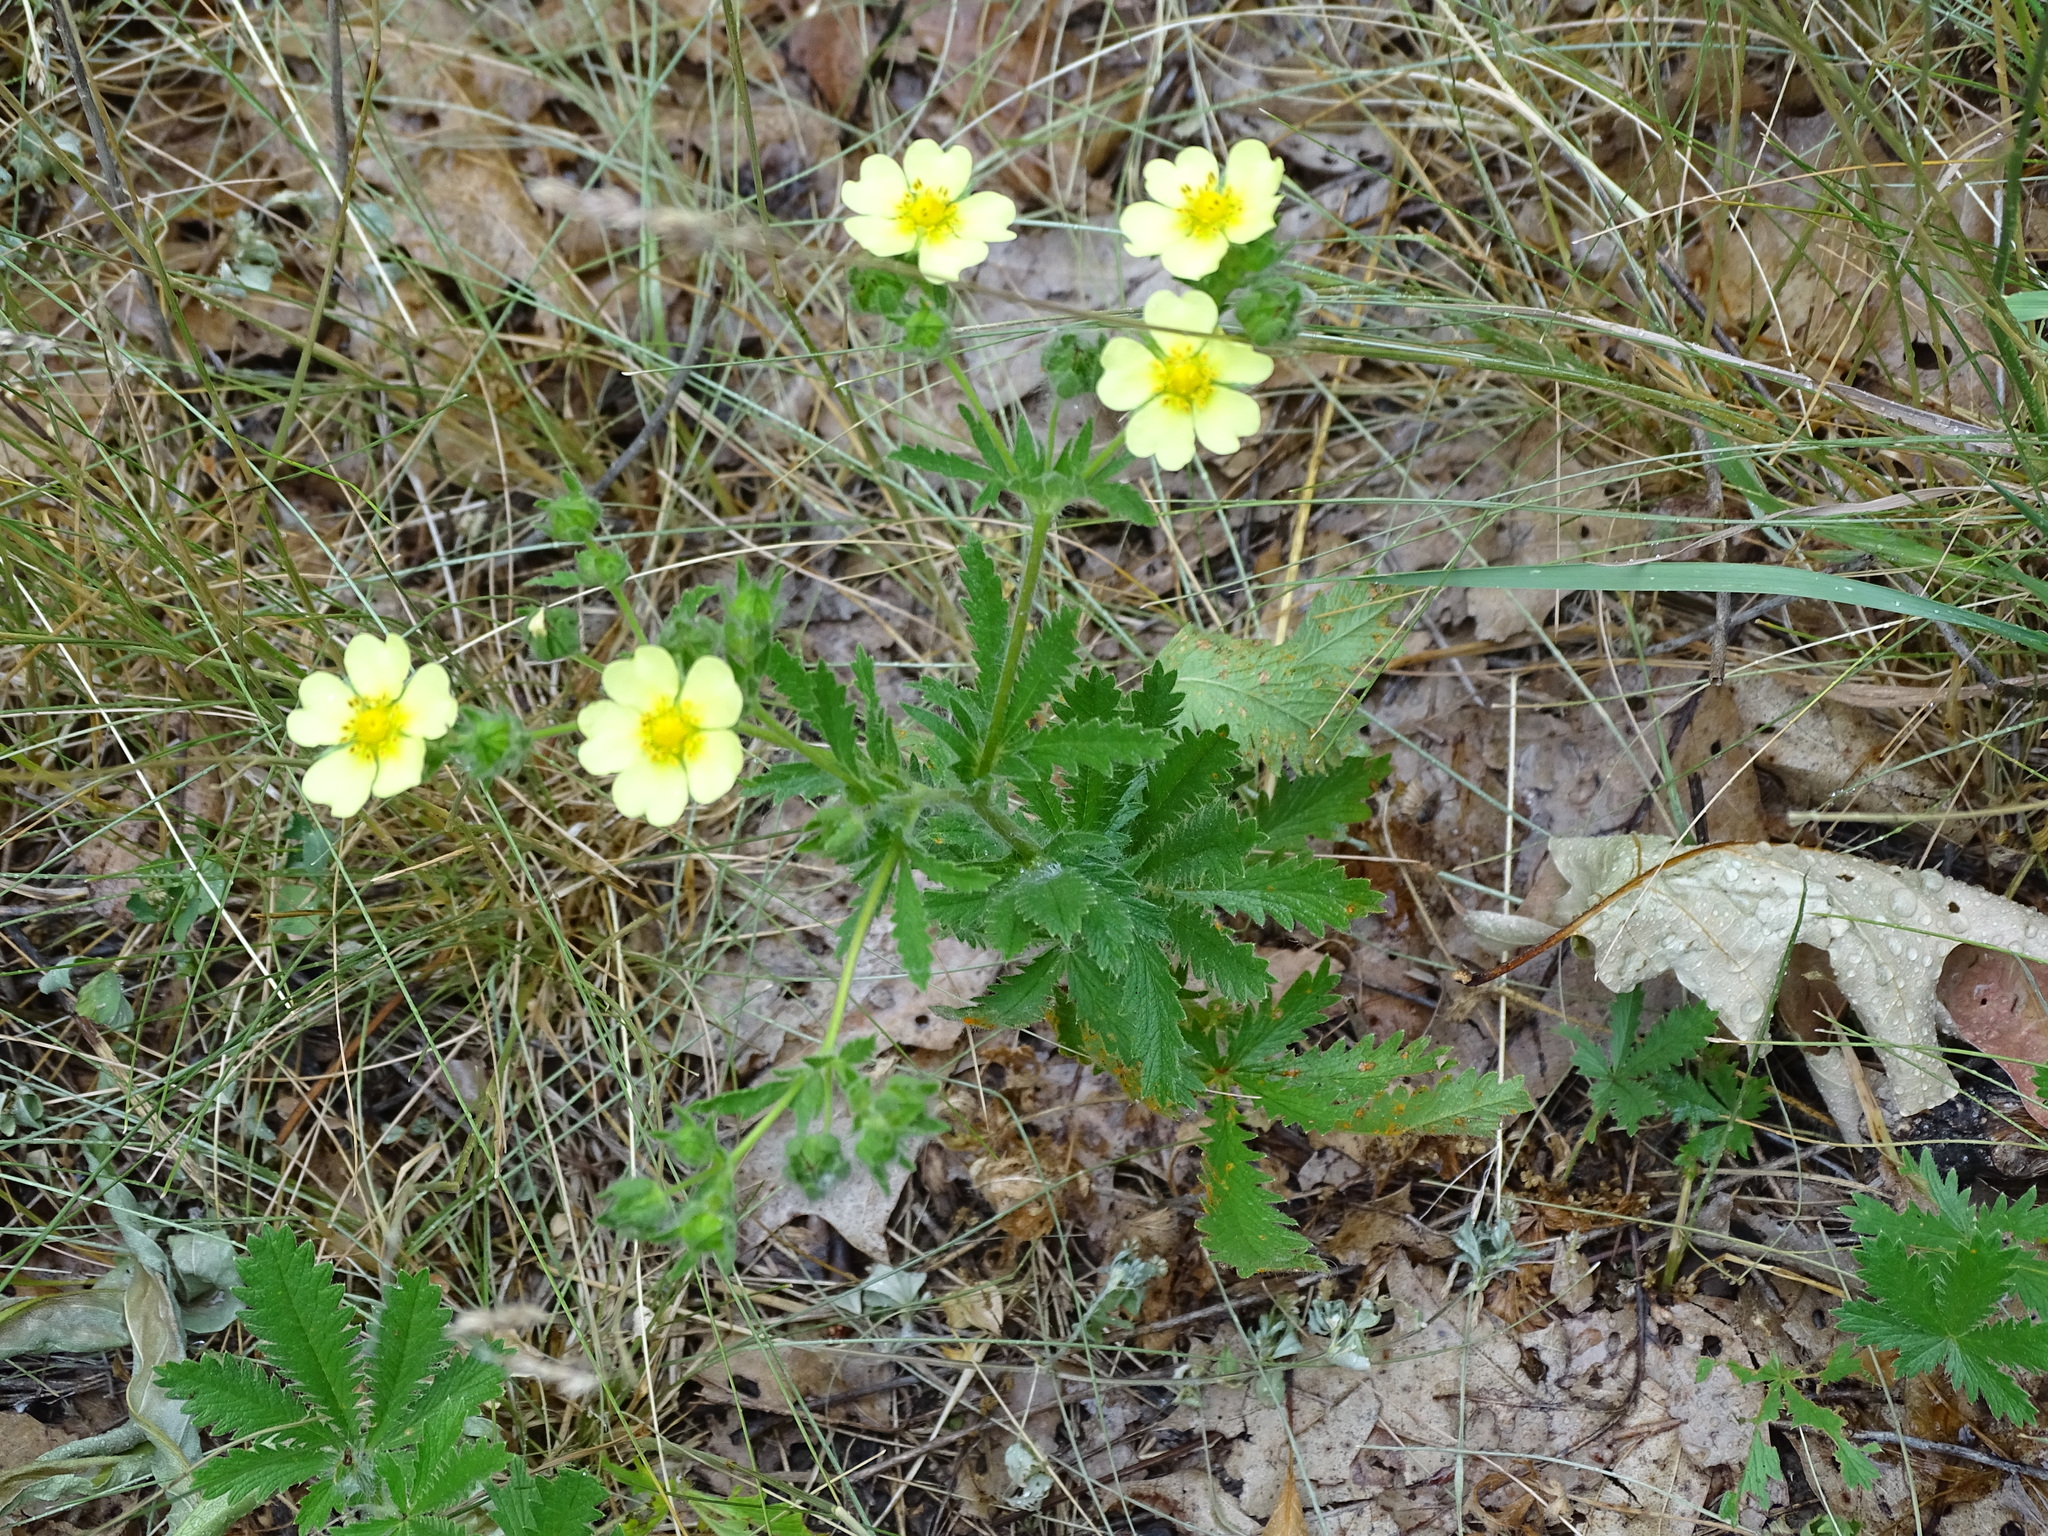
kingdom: Plantae
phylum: Tracheophyta
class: Magnoliopsida
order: Rosales
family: Rosaceae
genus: Potentilla
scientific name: Potentilla recta
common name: Sulphur cinquefoil
